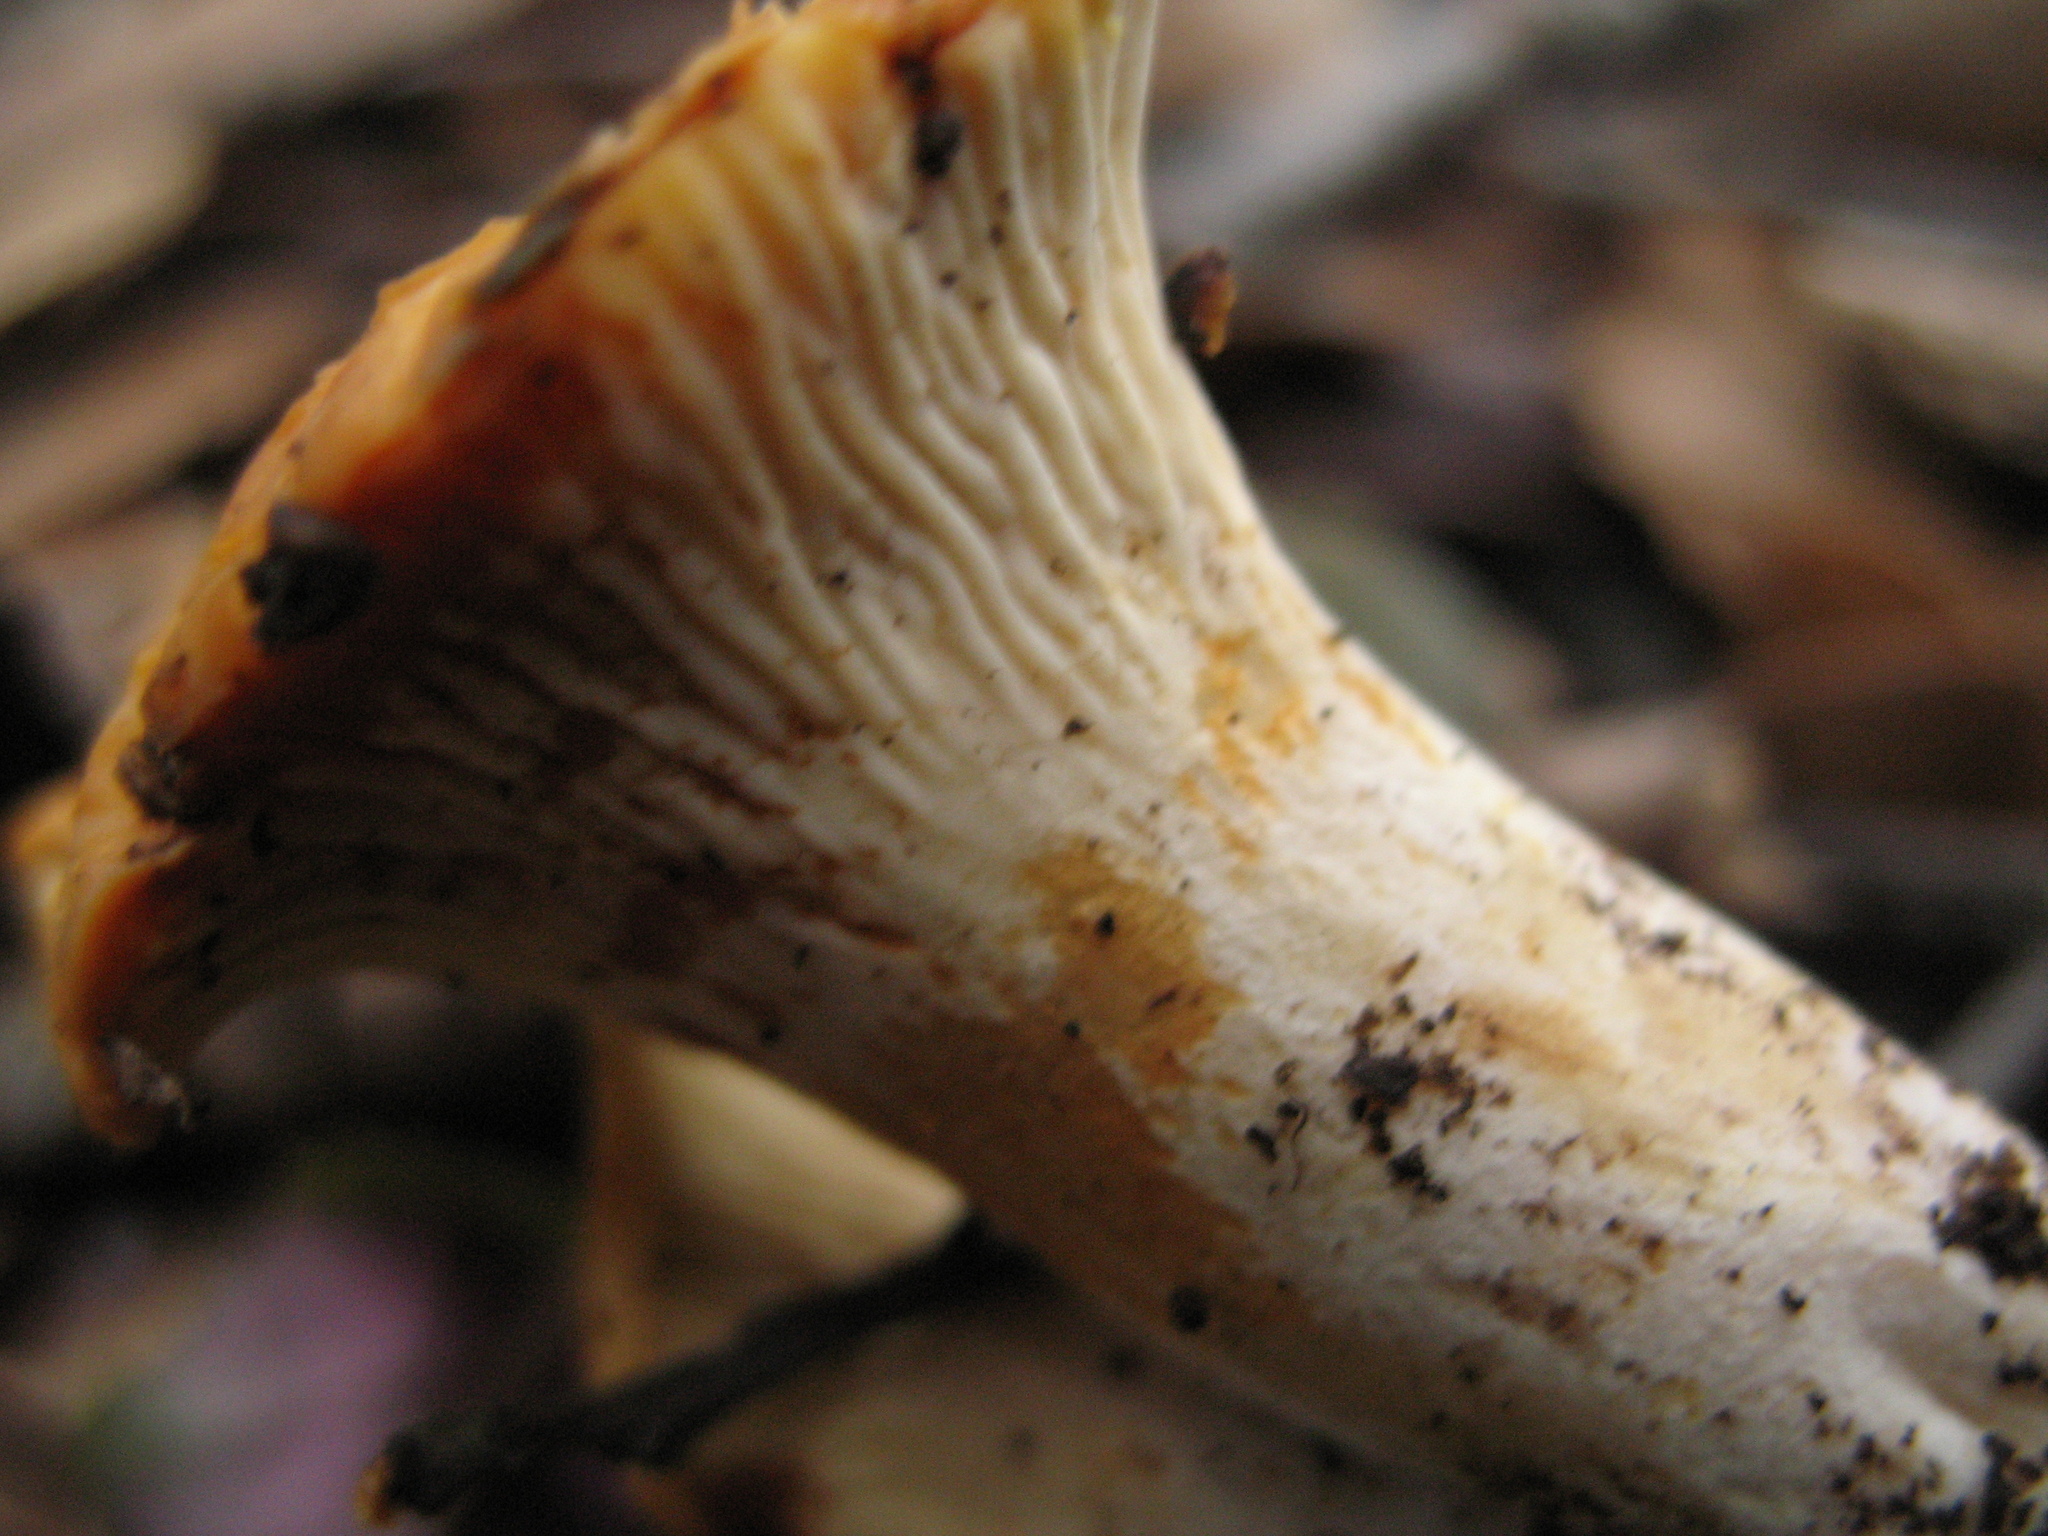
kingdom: Fungi
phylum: Basidiomycota
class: Agaricomycetes
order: Cantharellales
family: Hydnaceae
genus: Cantharellus
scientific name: Cantharellus ferruginascens
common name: Pale chanterelle
